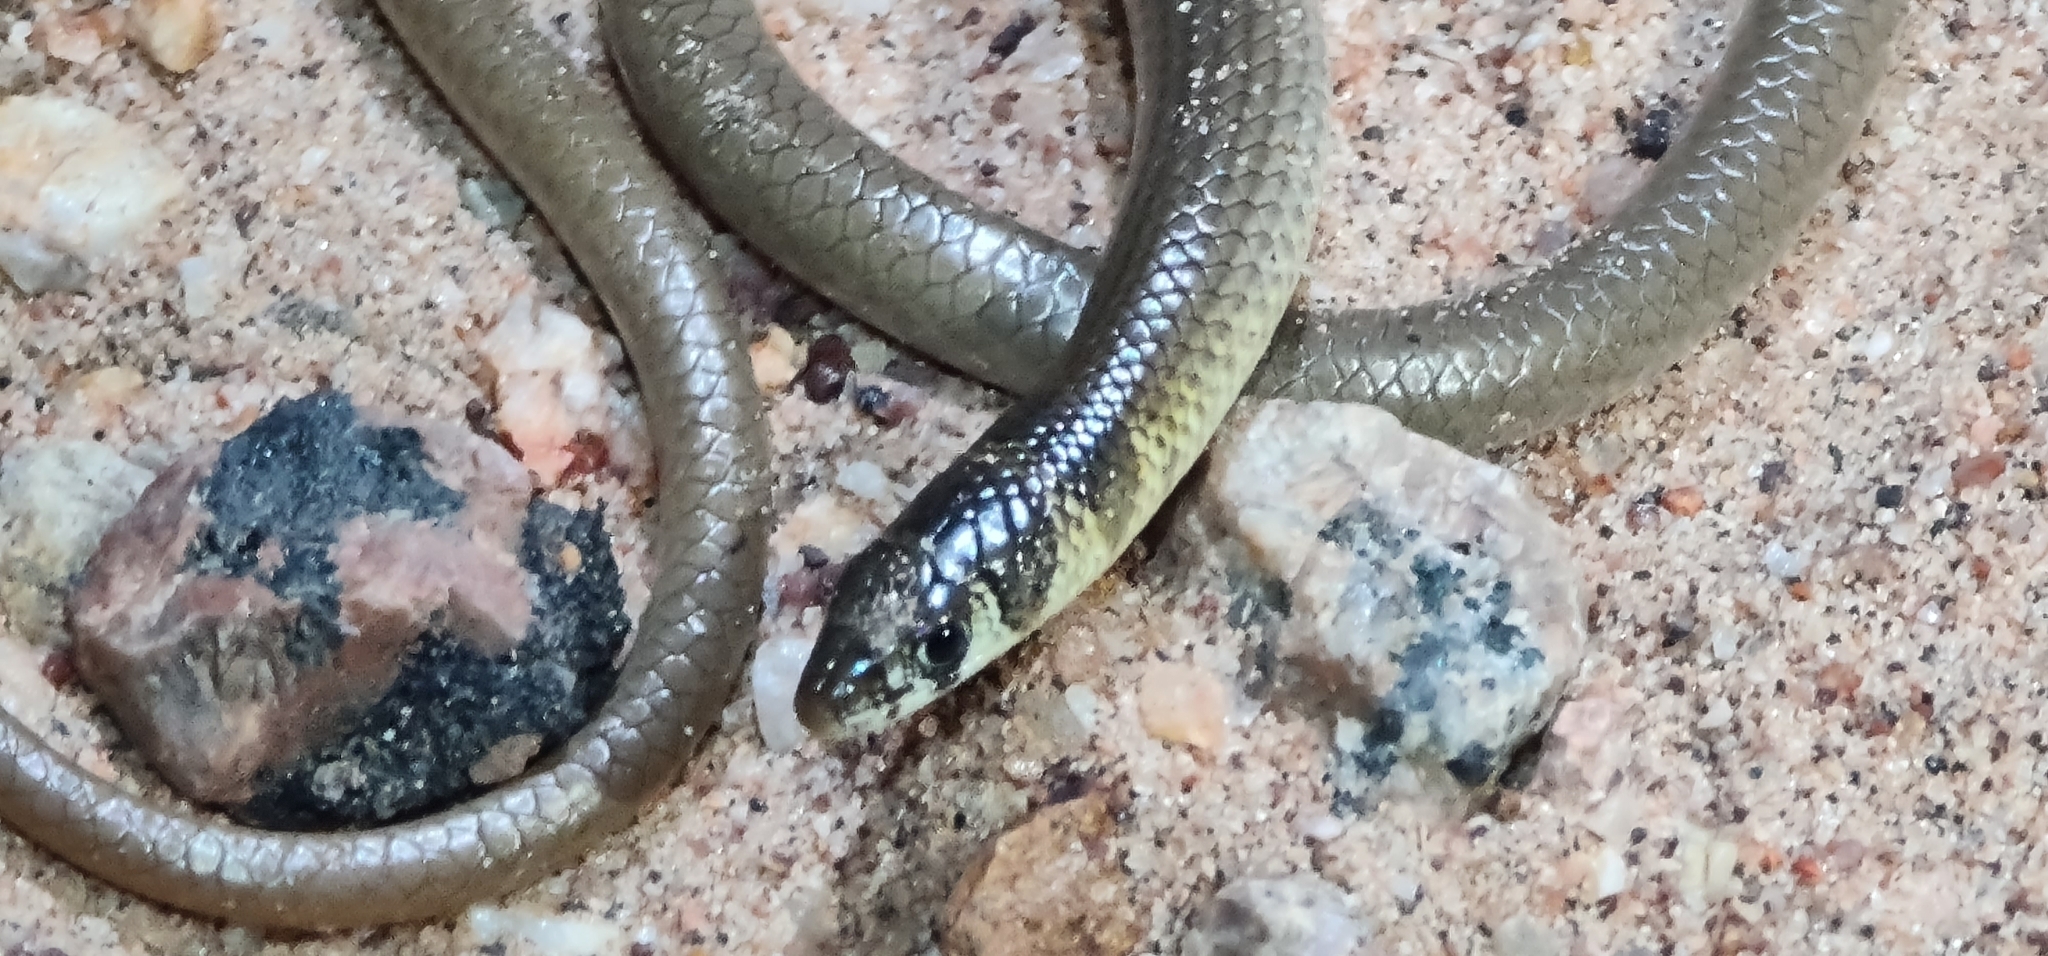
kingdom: Animalia
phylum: Chordata
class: Squamata
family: Pygopodidae
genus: Delma
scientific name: Delma tincta
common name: Excitable delma
